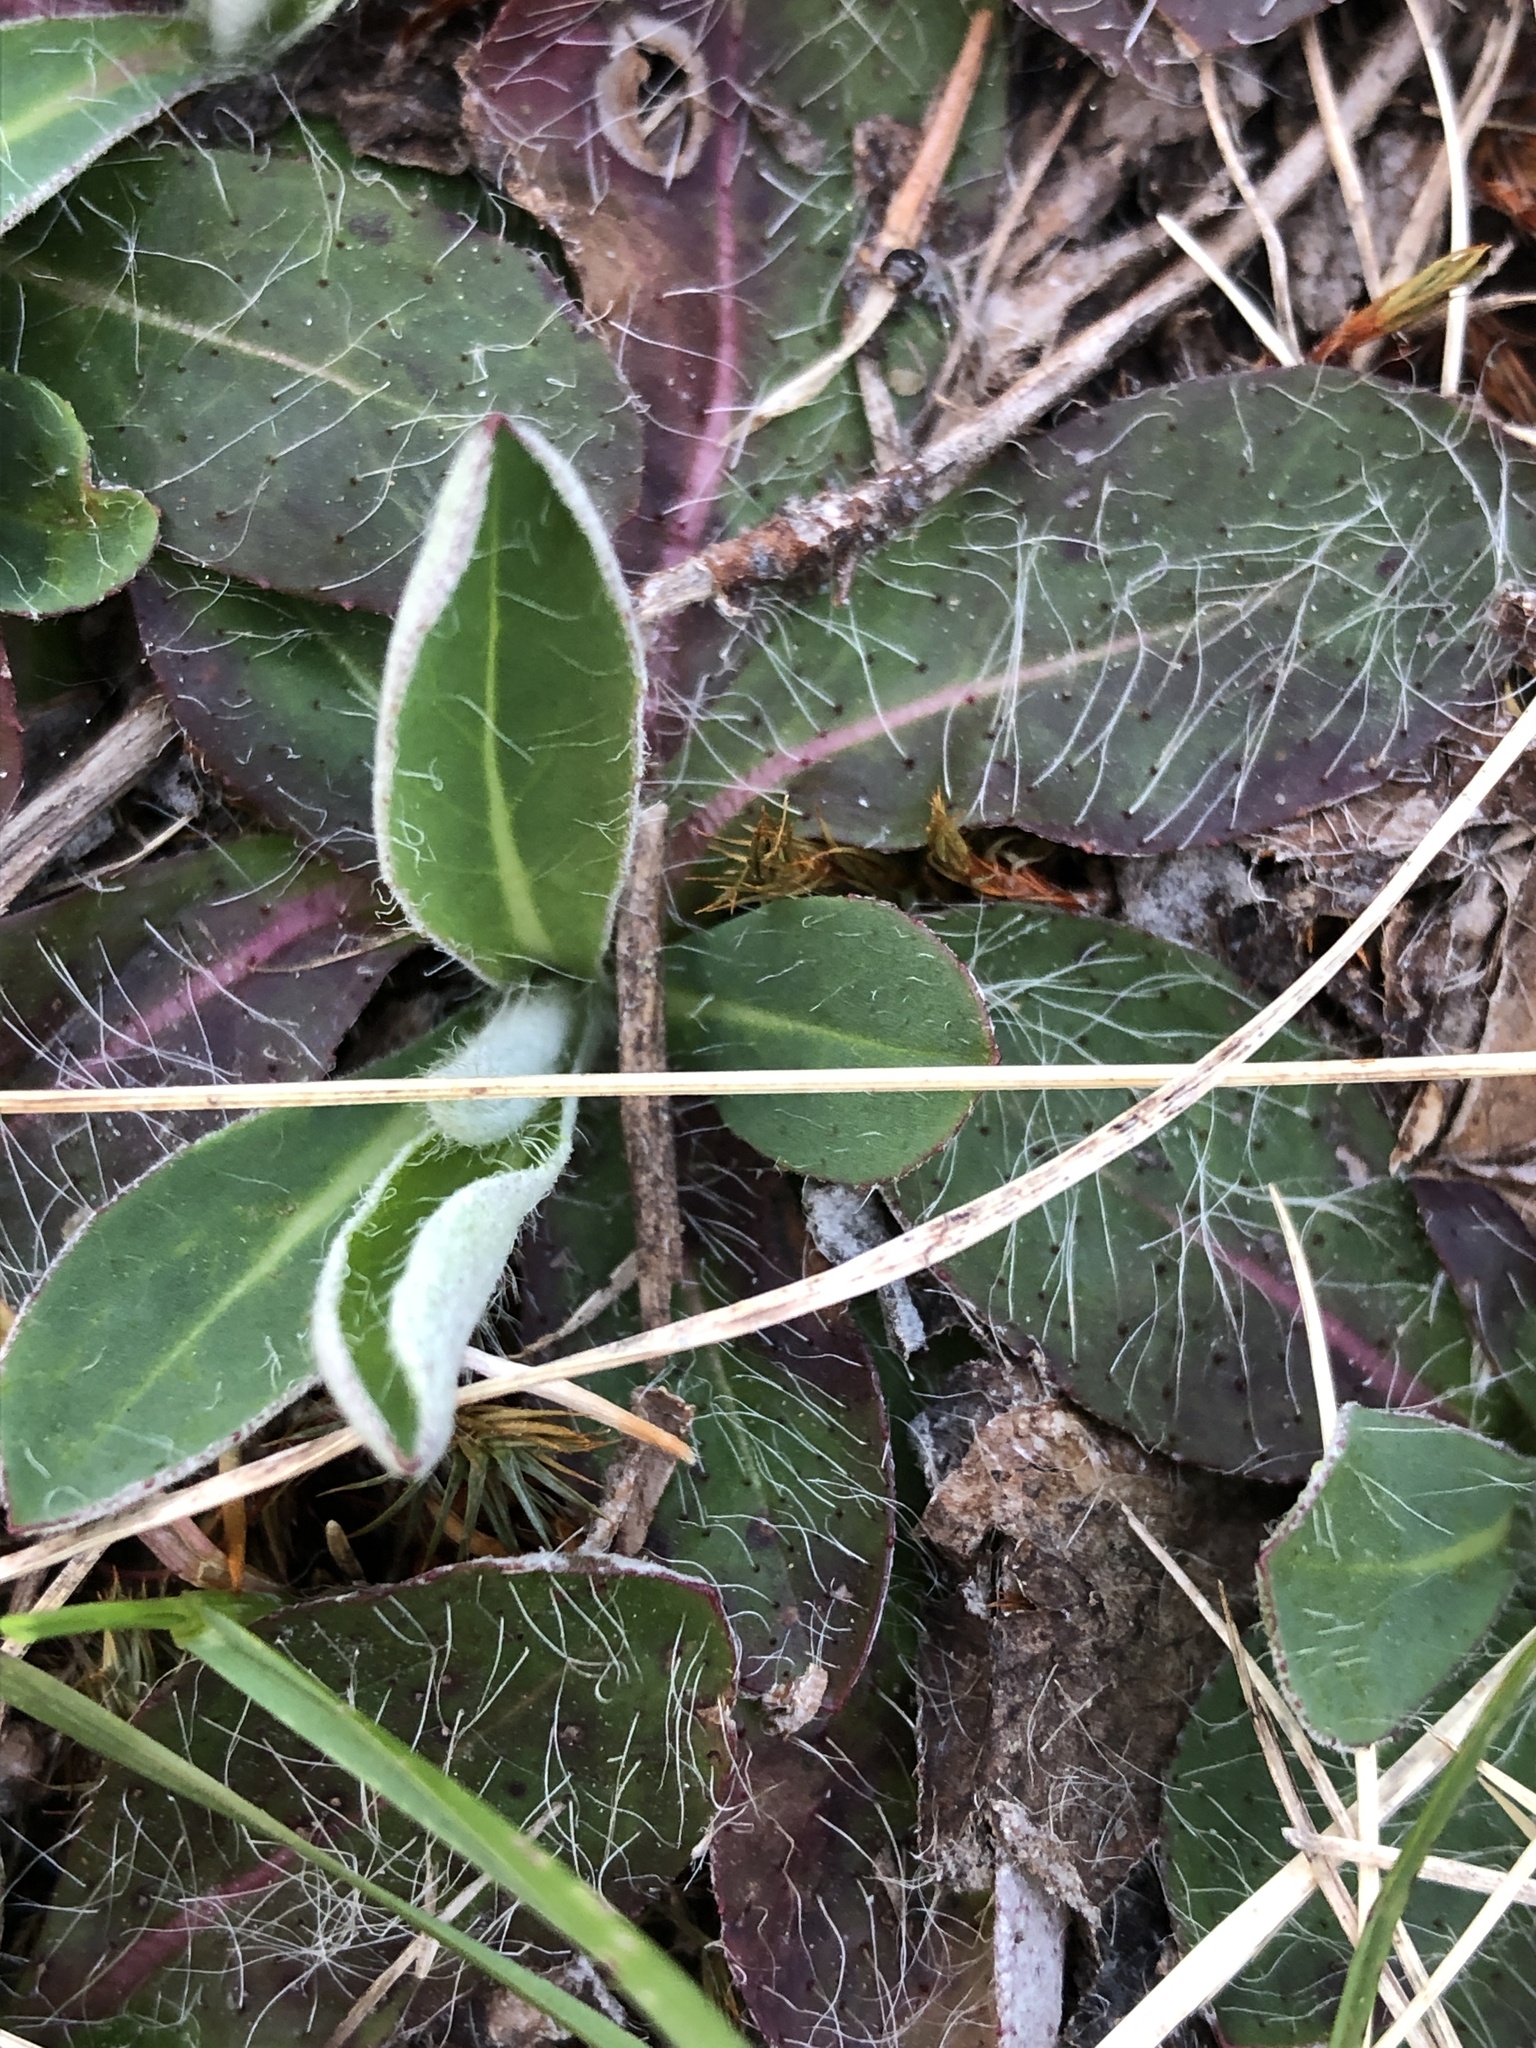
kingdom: Plantae
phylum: Tracheophyta
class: Magnoliopsida
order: Asterales
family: Asteraceae
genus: Pilosella
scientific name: Pilosella officinarum
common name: Mouse-ear hawkweed
